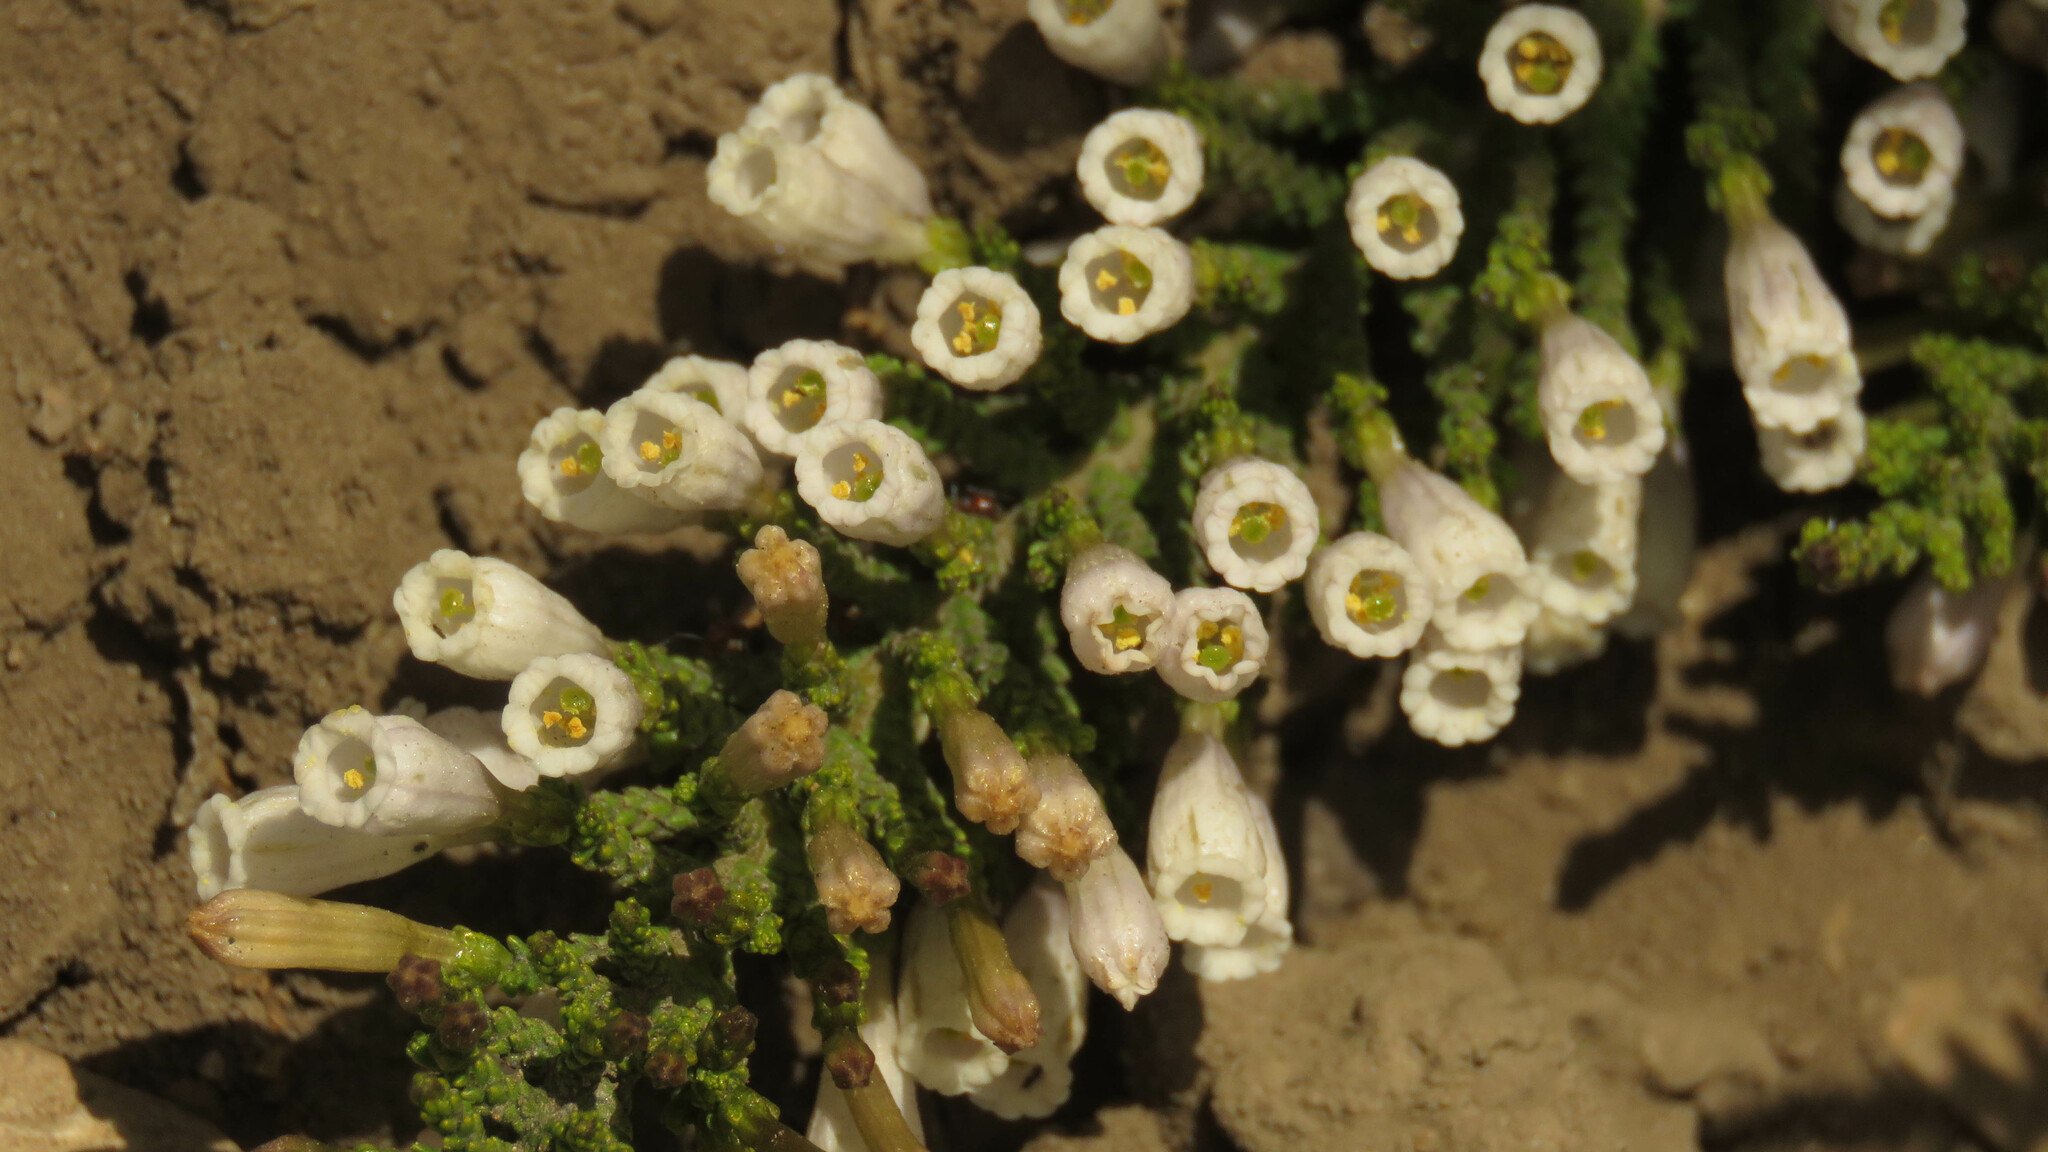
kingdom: Plantae
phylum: Tracheophyta
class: Magnoliopsida
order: Solanales
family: Solanaceae
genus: Fabiana
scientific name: Fabiana imbricata
